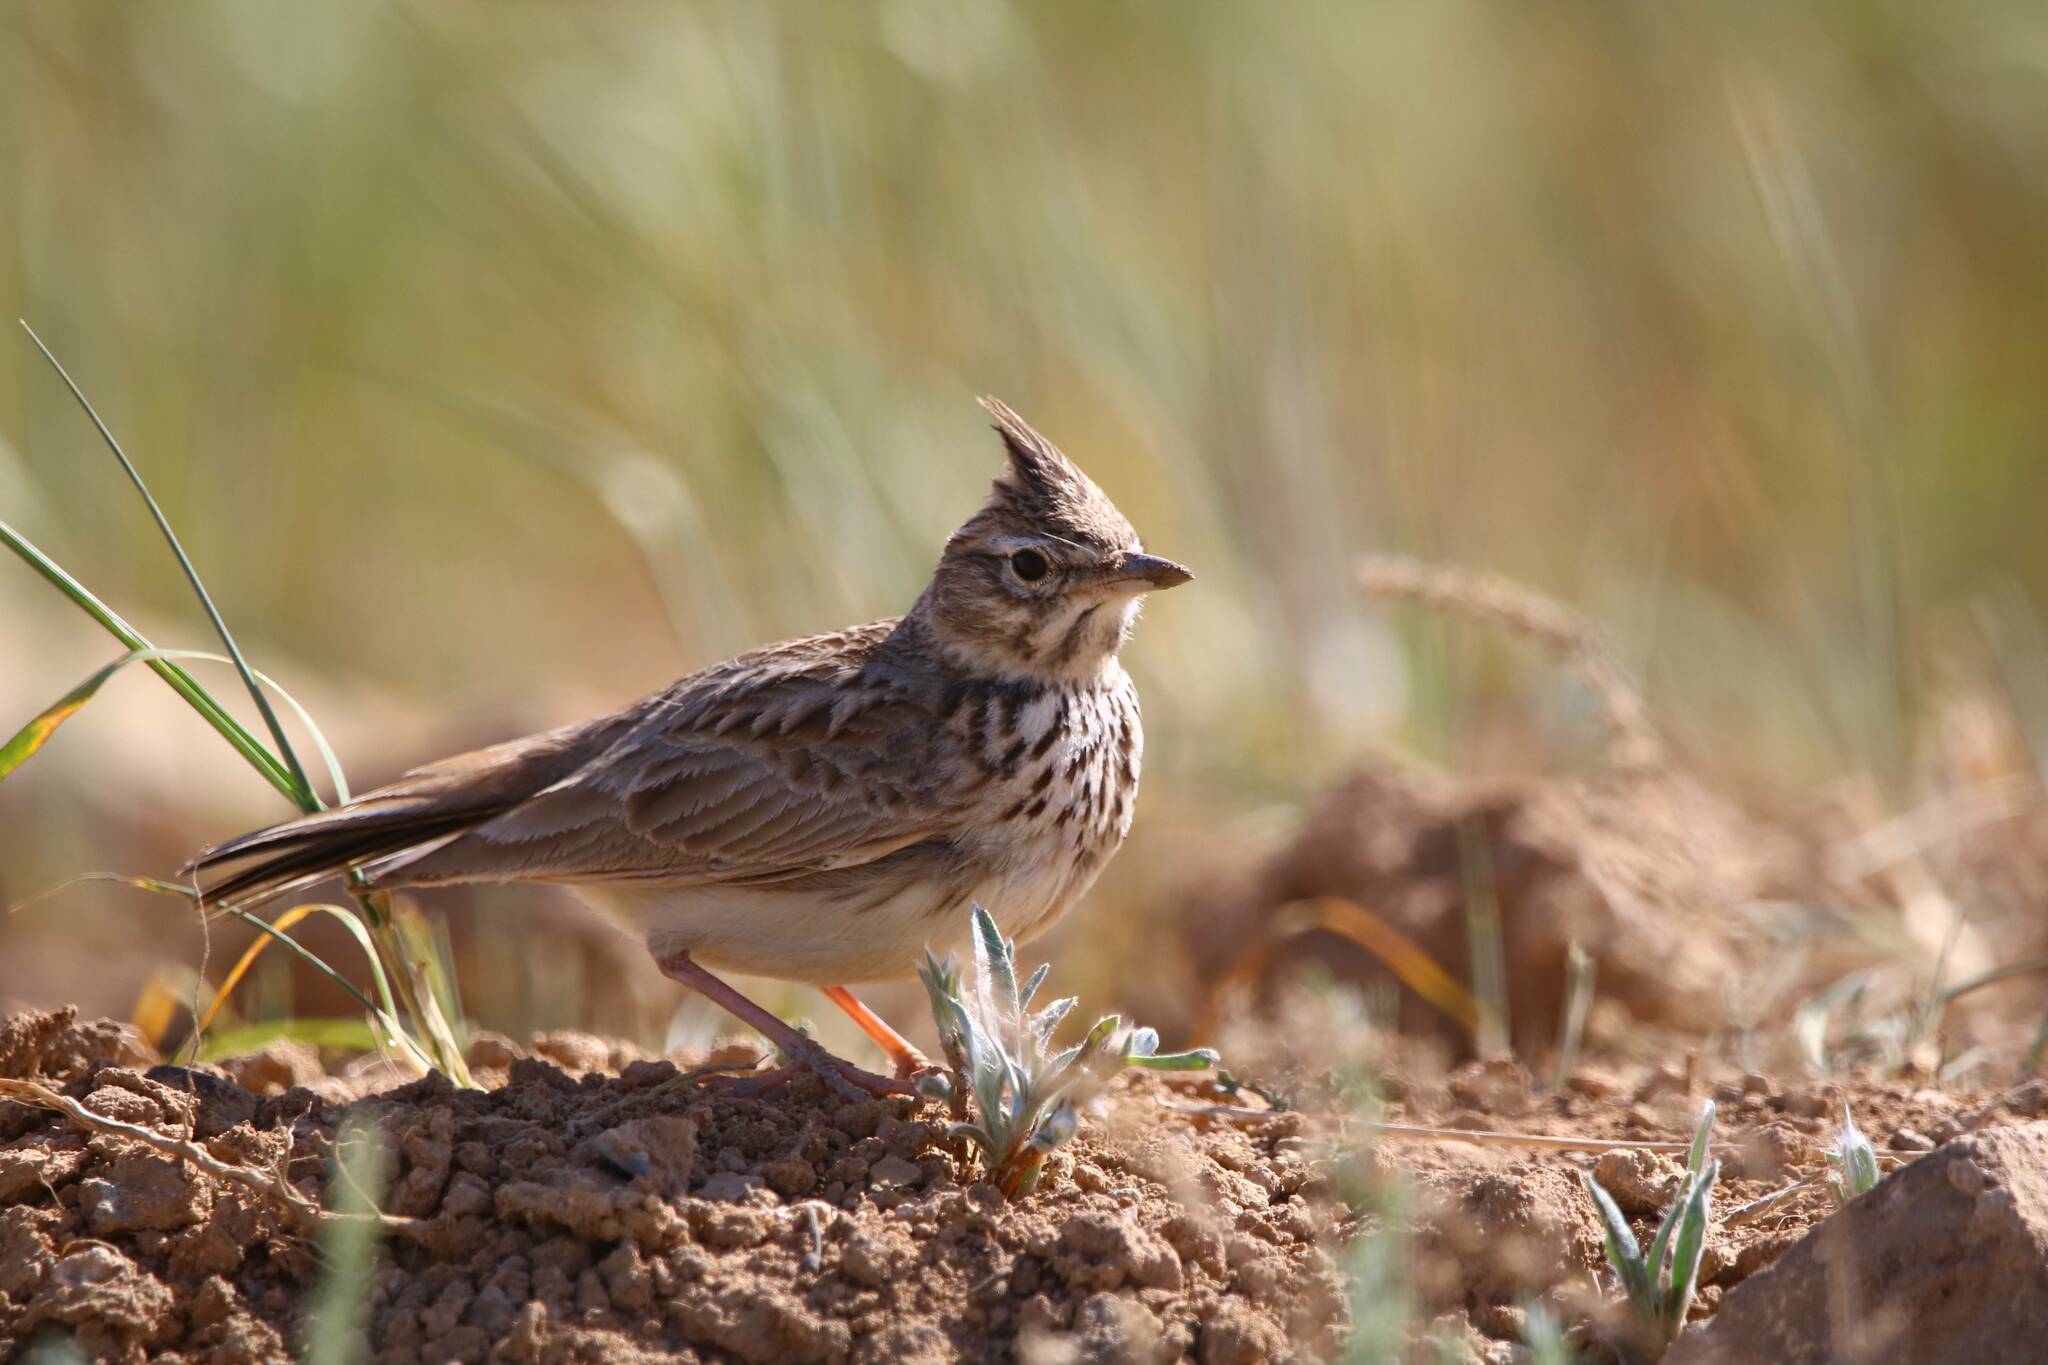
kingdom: Animalia
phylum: Chordata
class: Aves
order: Passeriformes
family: Alaudidae
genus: Galerida
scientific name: Galerida theklae
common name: Thekla lark
